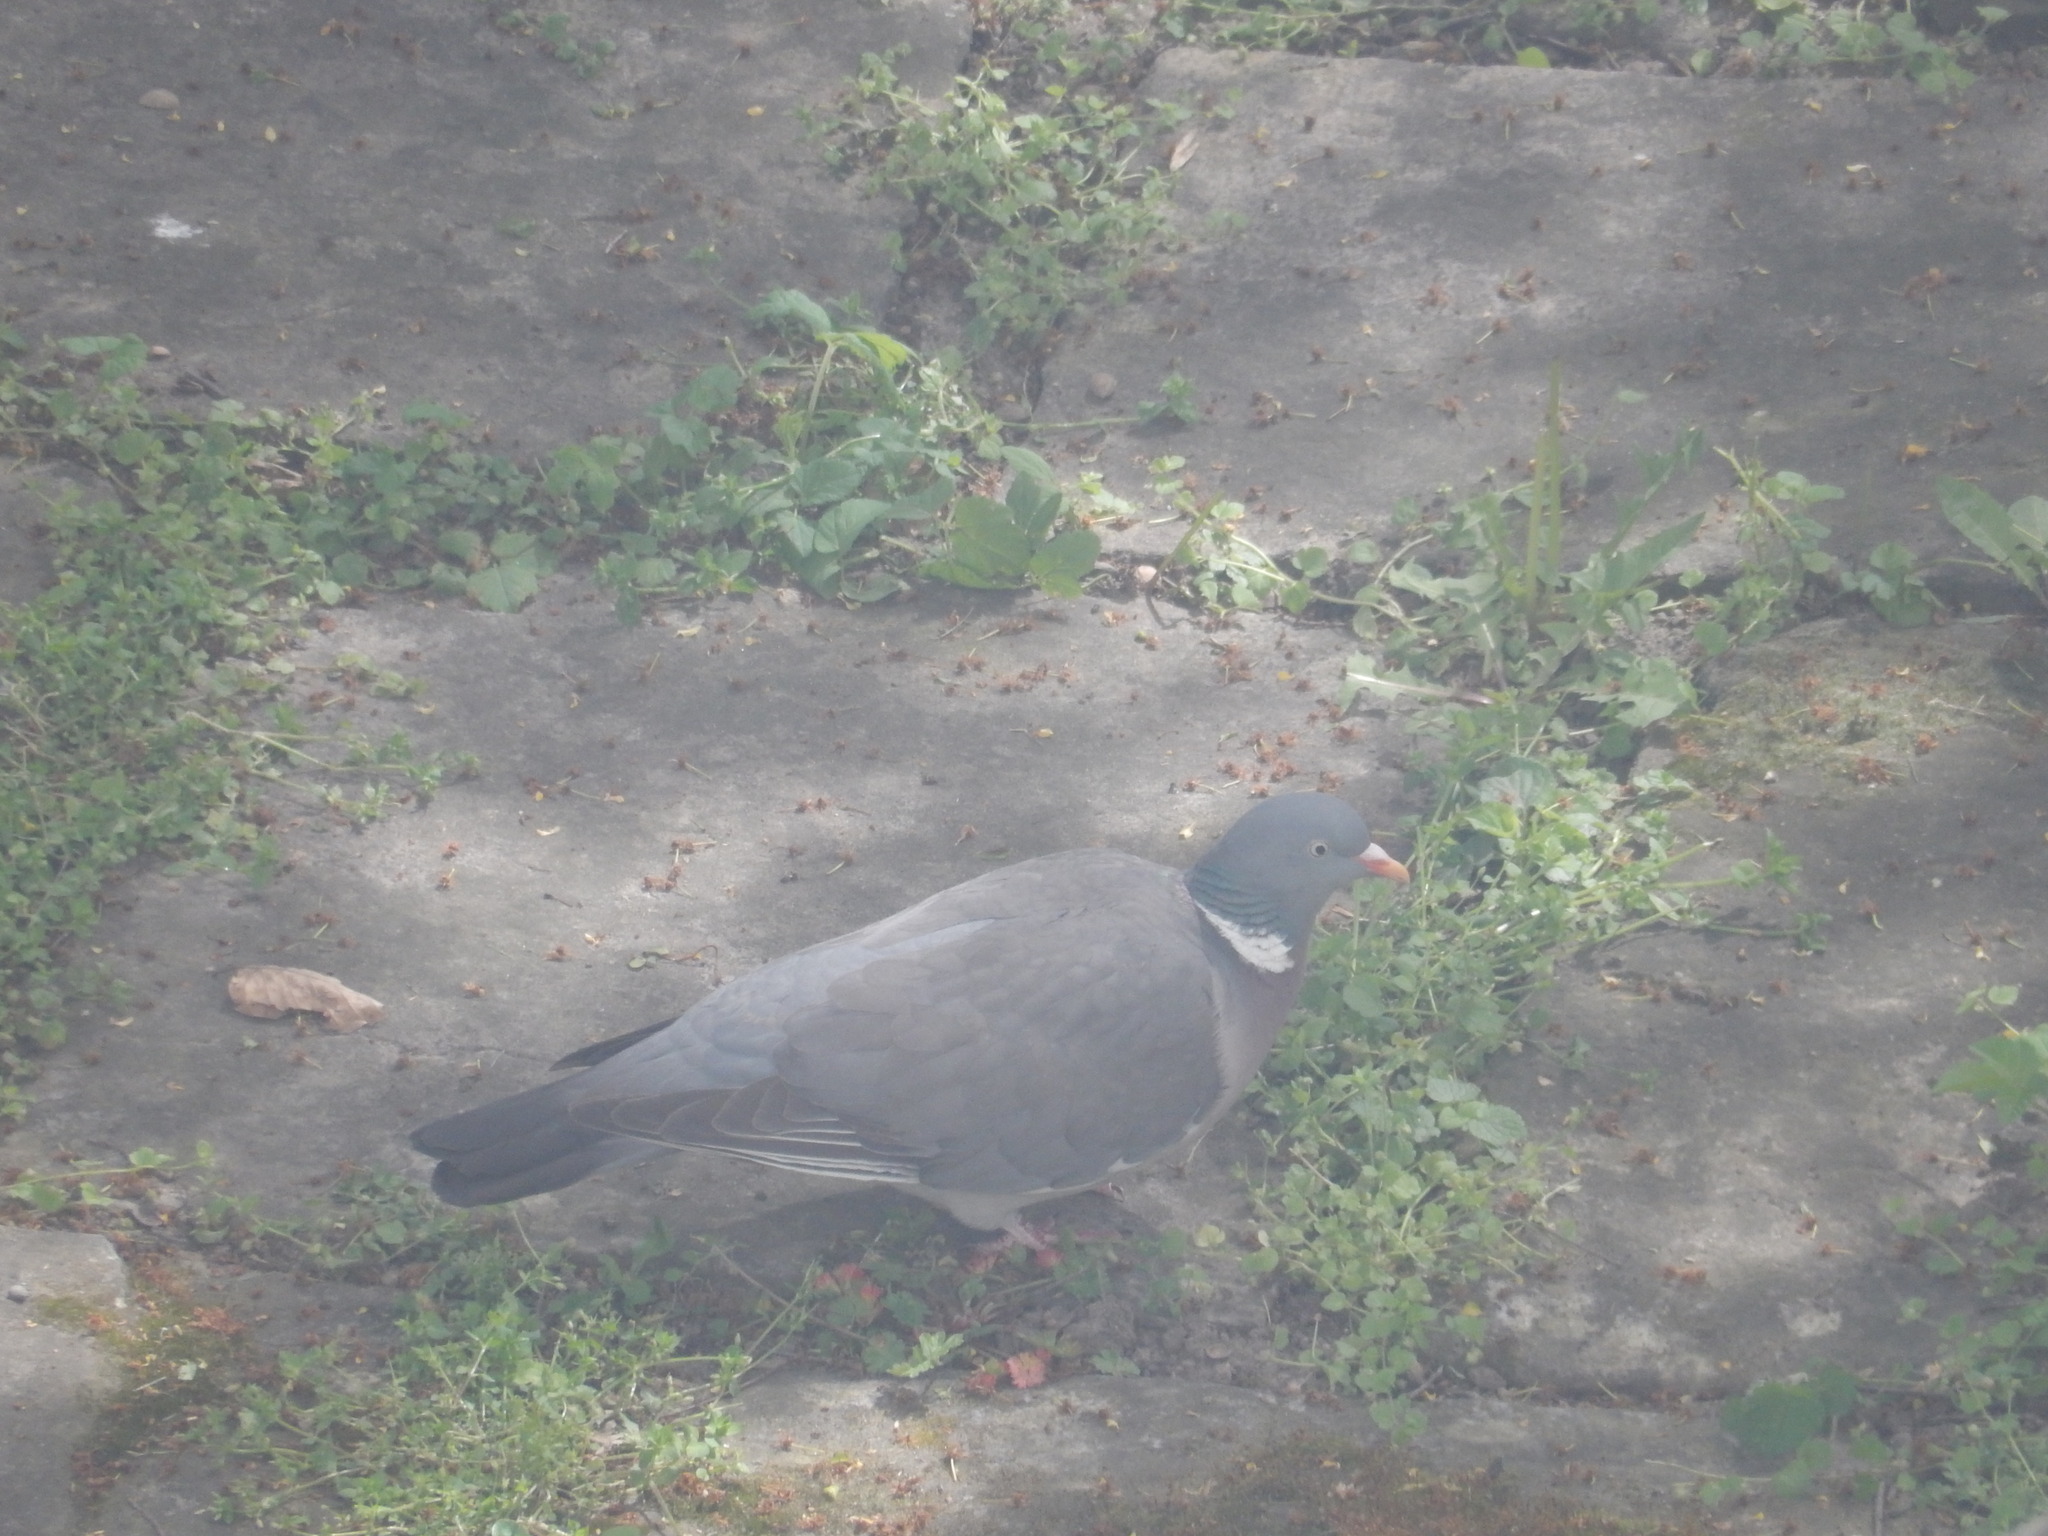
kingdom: Animalia
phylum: Chordata
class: Aves
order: Columbiformes
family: Columbidae
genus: Columba
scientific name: Columba palumbus
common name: Common wood pigeon
